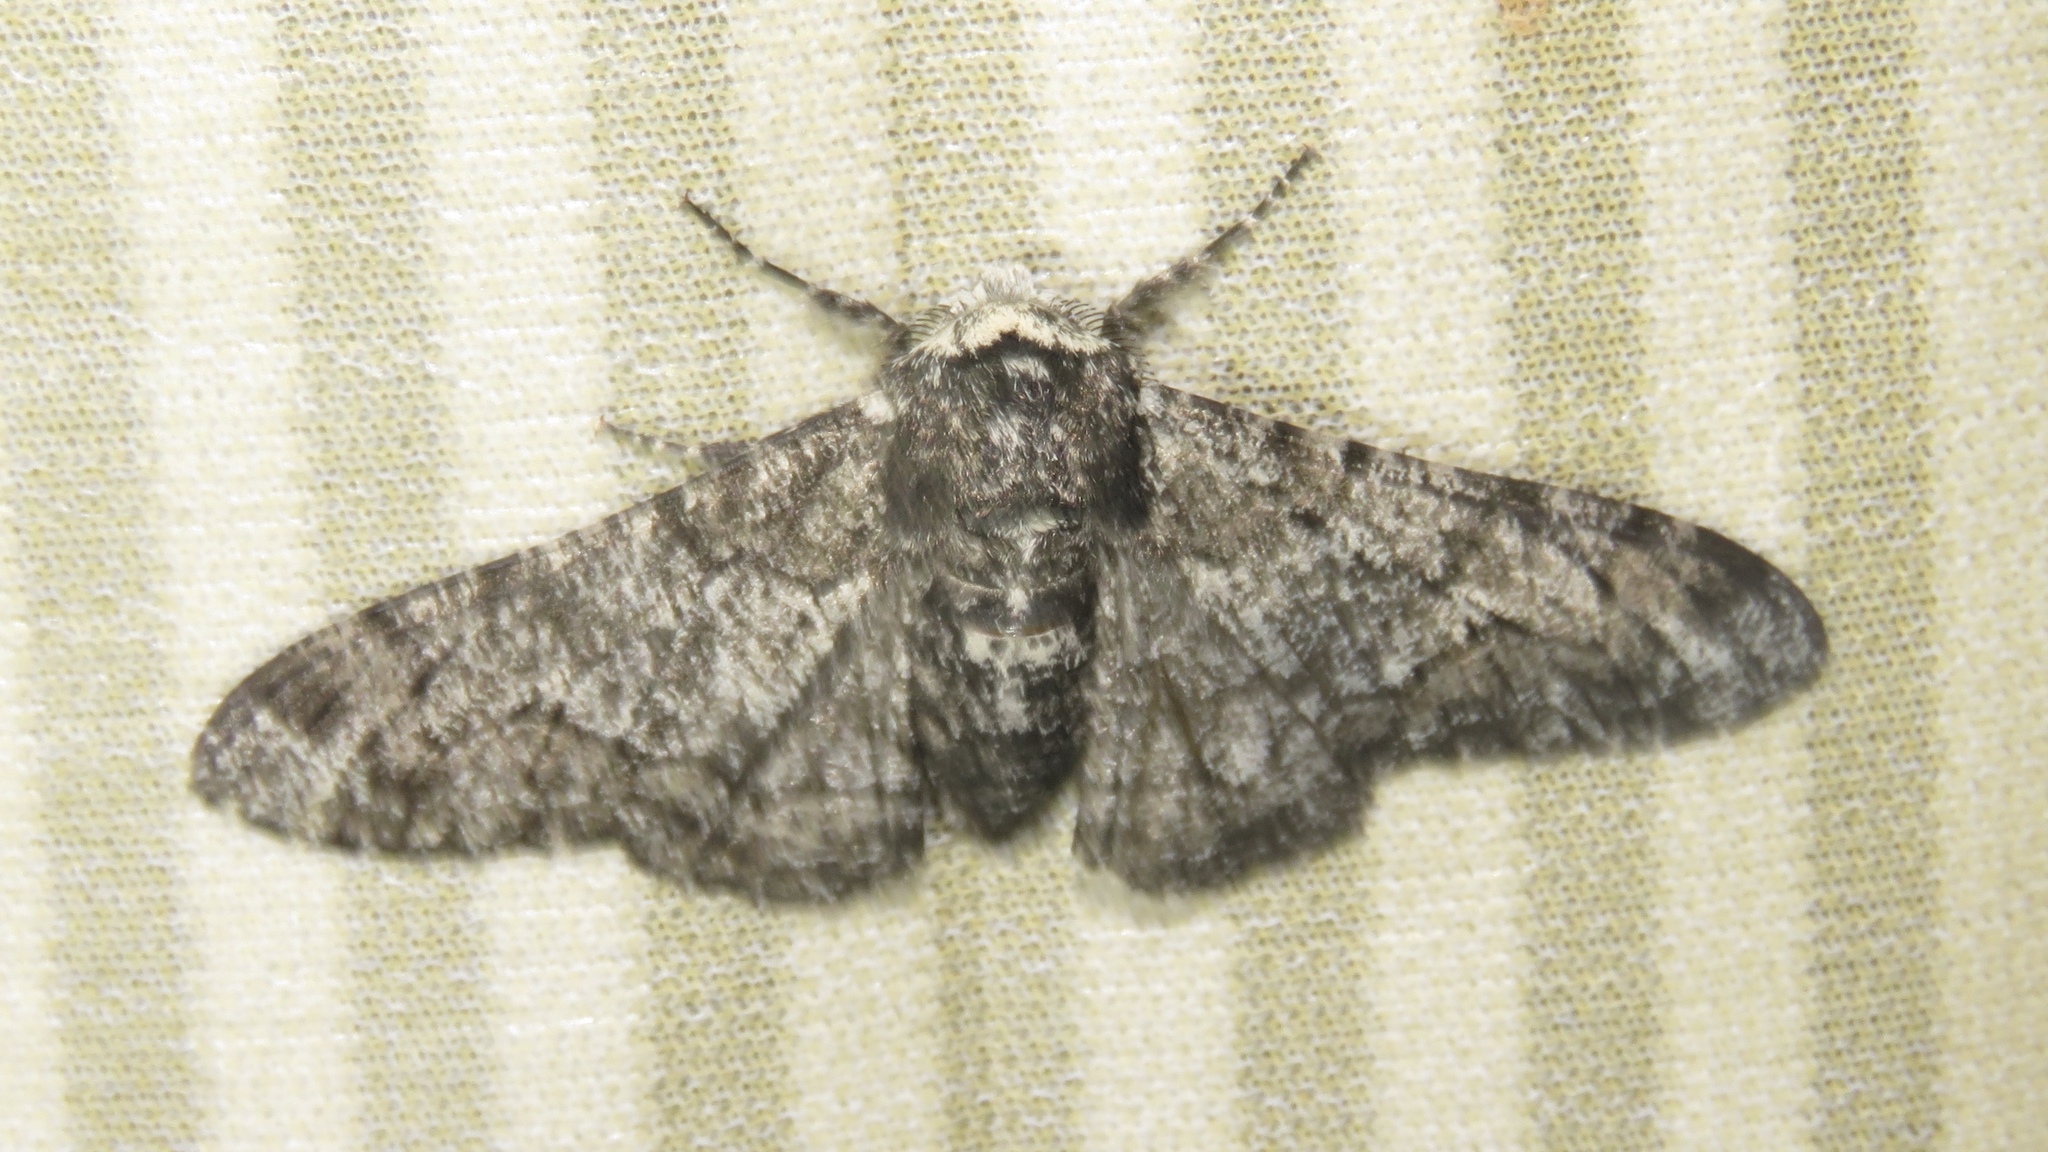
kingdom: Animalia
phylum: Arthropoda
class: Insecta
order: Lepidoptera
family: Geometridae
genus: Biston
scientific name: Biston betularia
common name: Peppered moth
